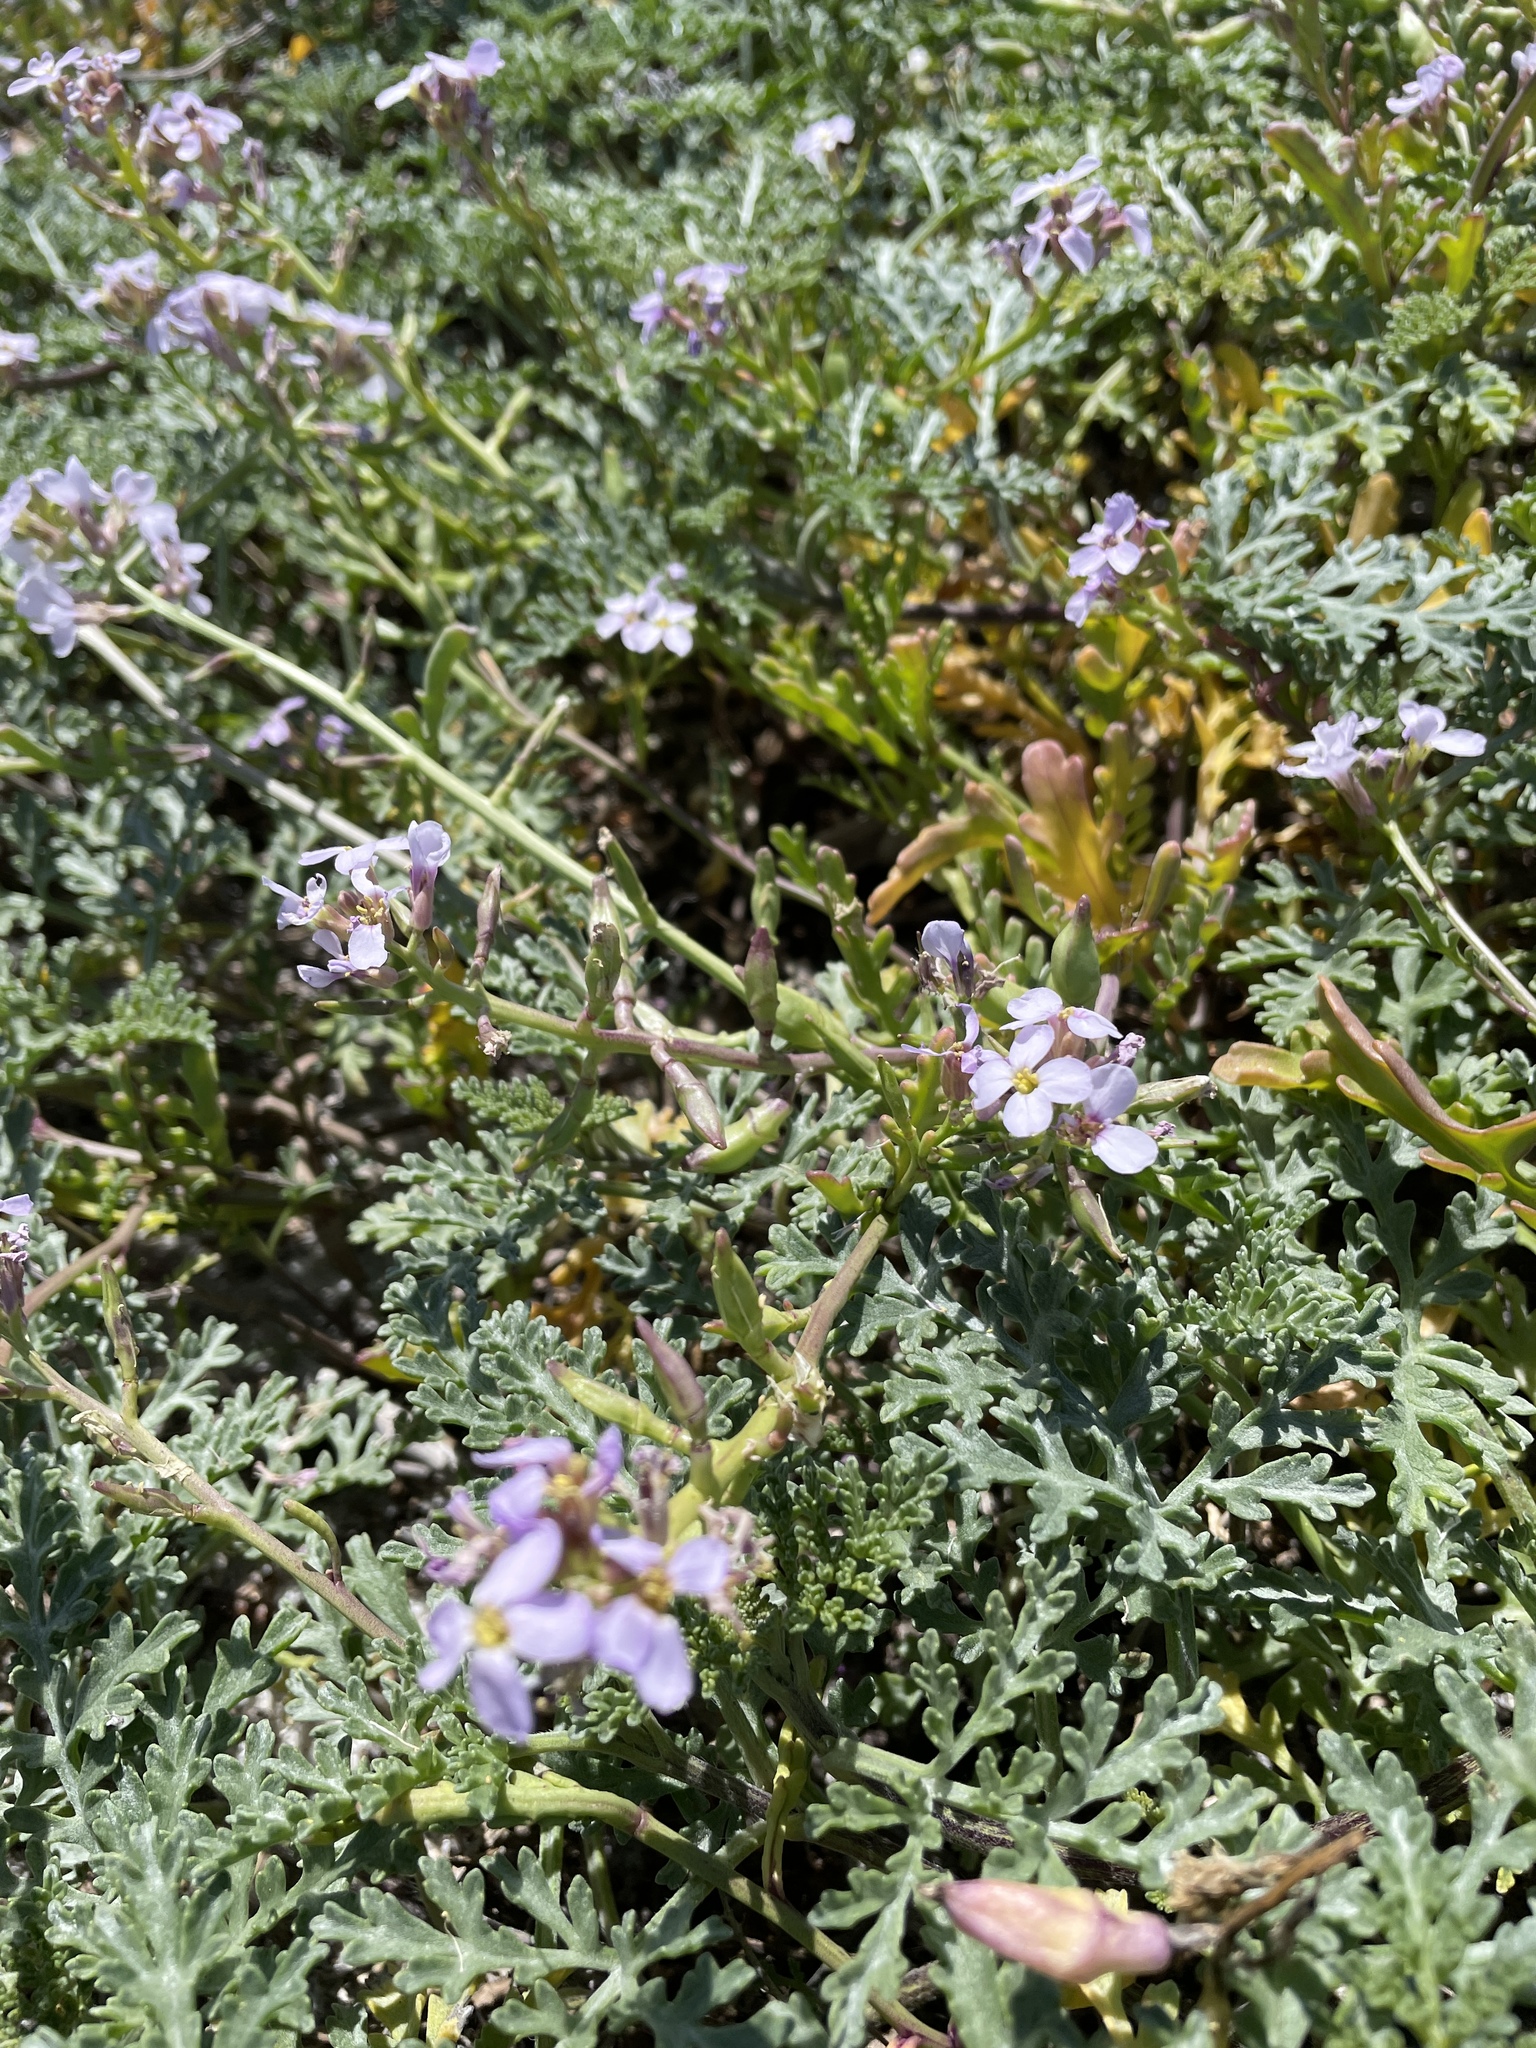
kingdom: Plantae
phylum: Tracheophyta
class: Magnoliopsida
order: Brassicales
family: Brassicaceae
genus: Cakile
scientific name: Cakile maritima
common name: Sea rocket
